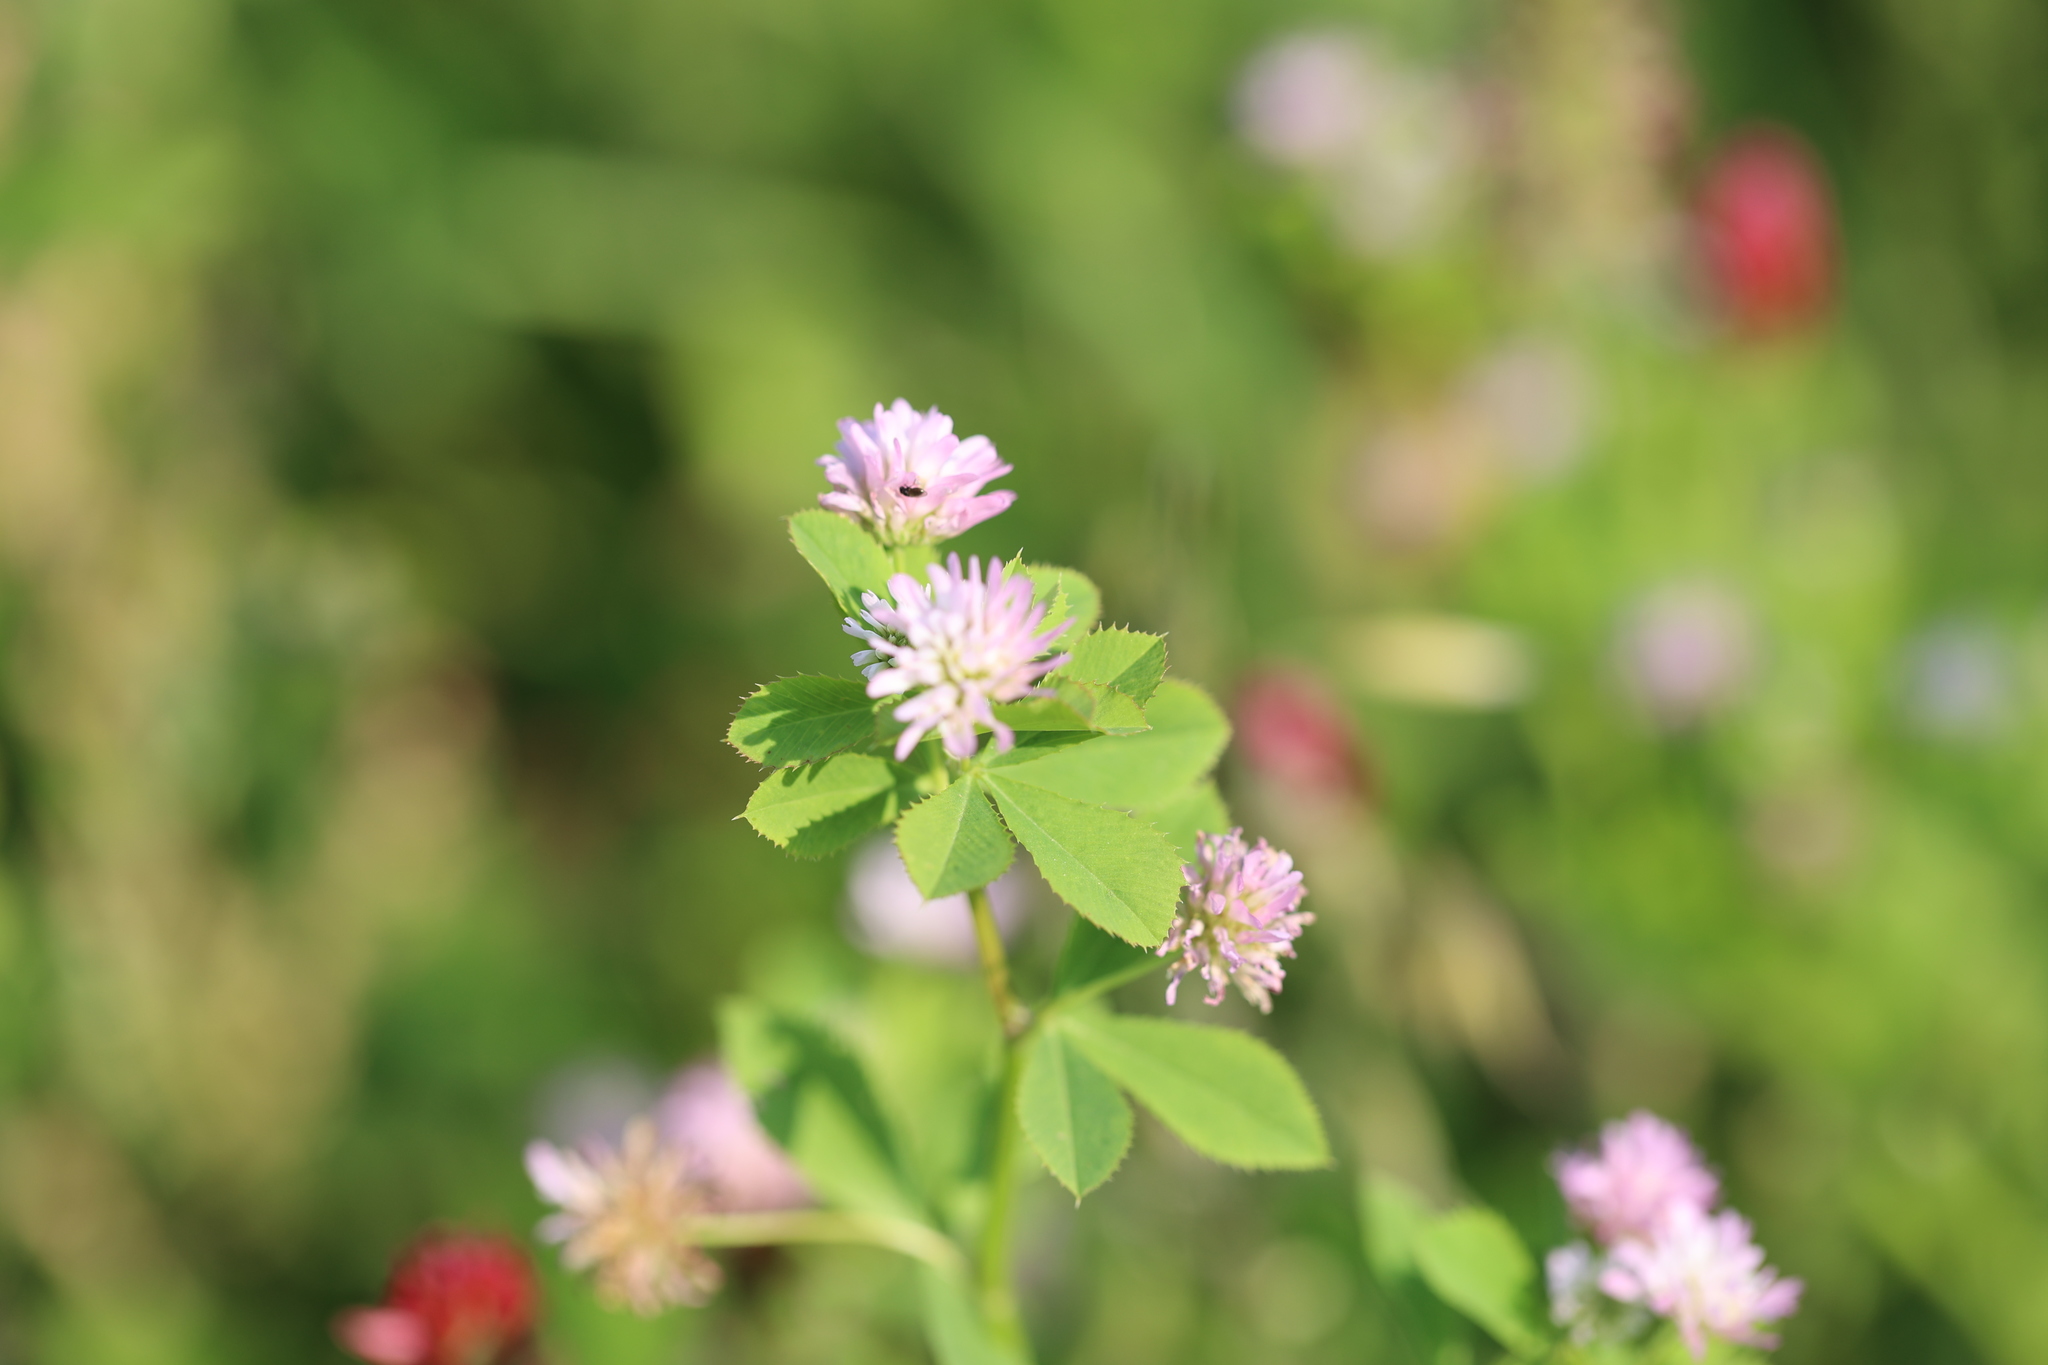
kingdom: Plantae
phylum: Tracheophyta
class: Magnoliopsida
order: Fabales
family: Fabaceae
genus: Trifolium
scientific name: Trifolium resupinatum
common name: Reversed clover
